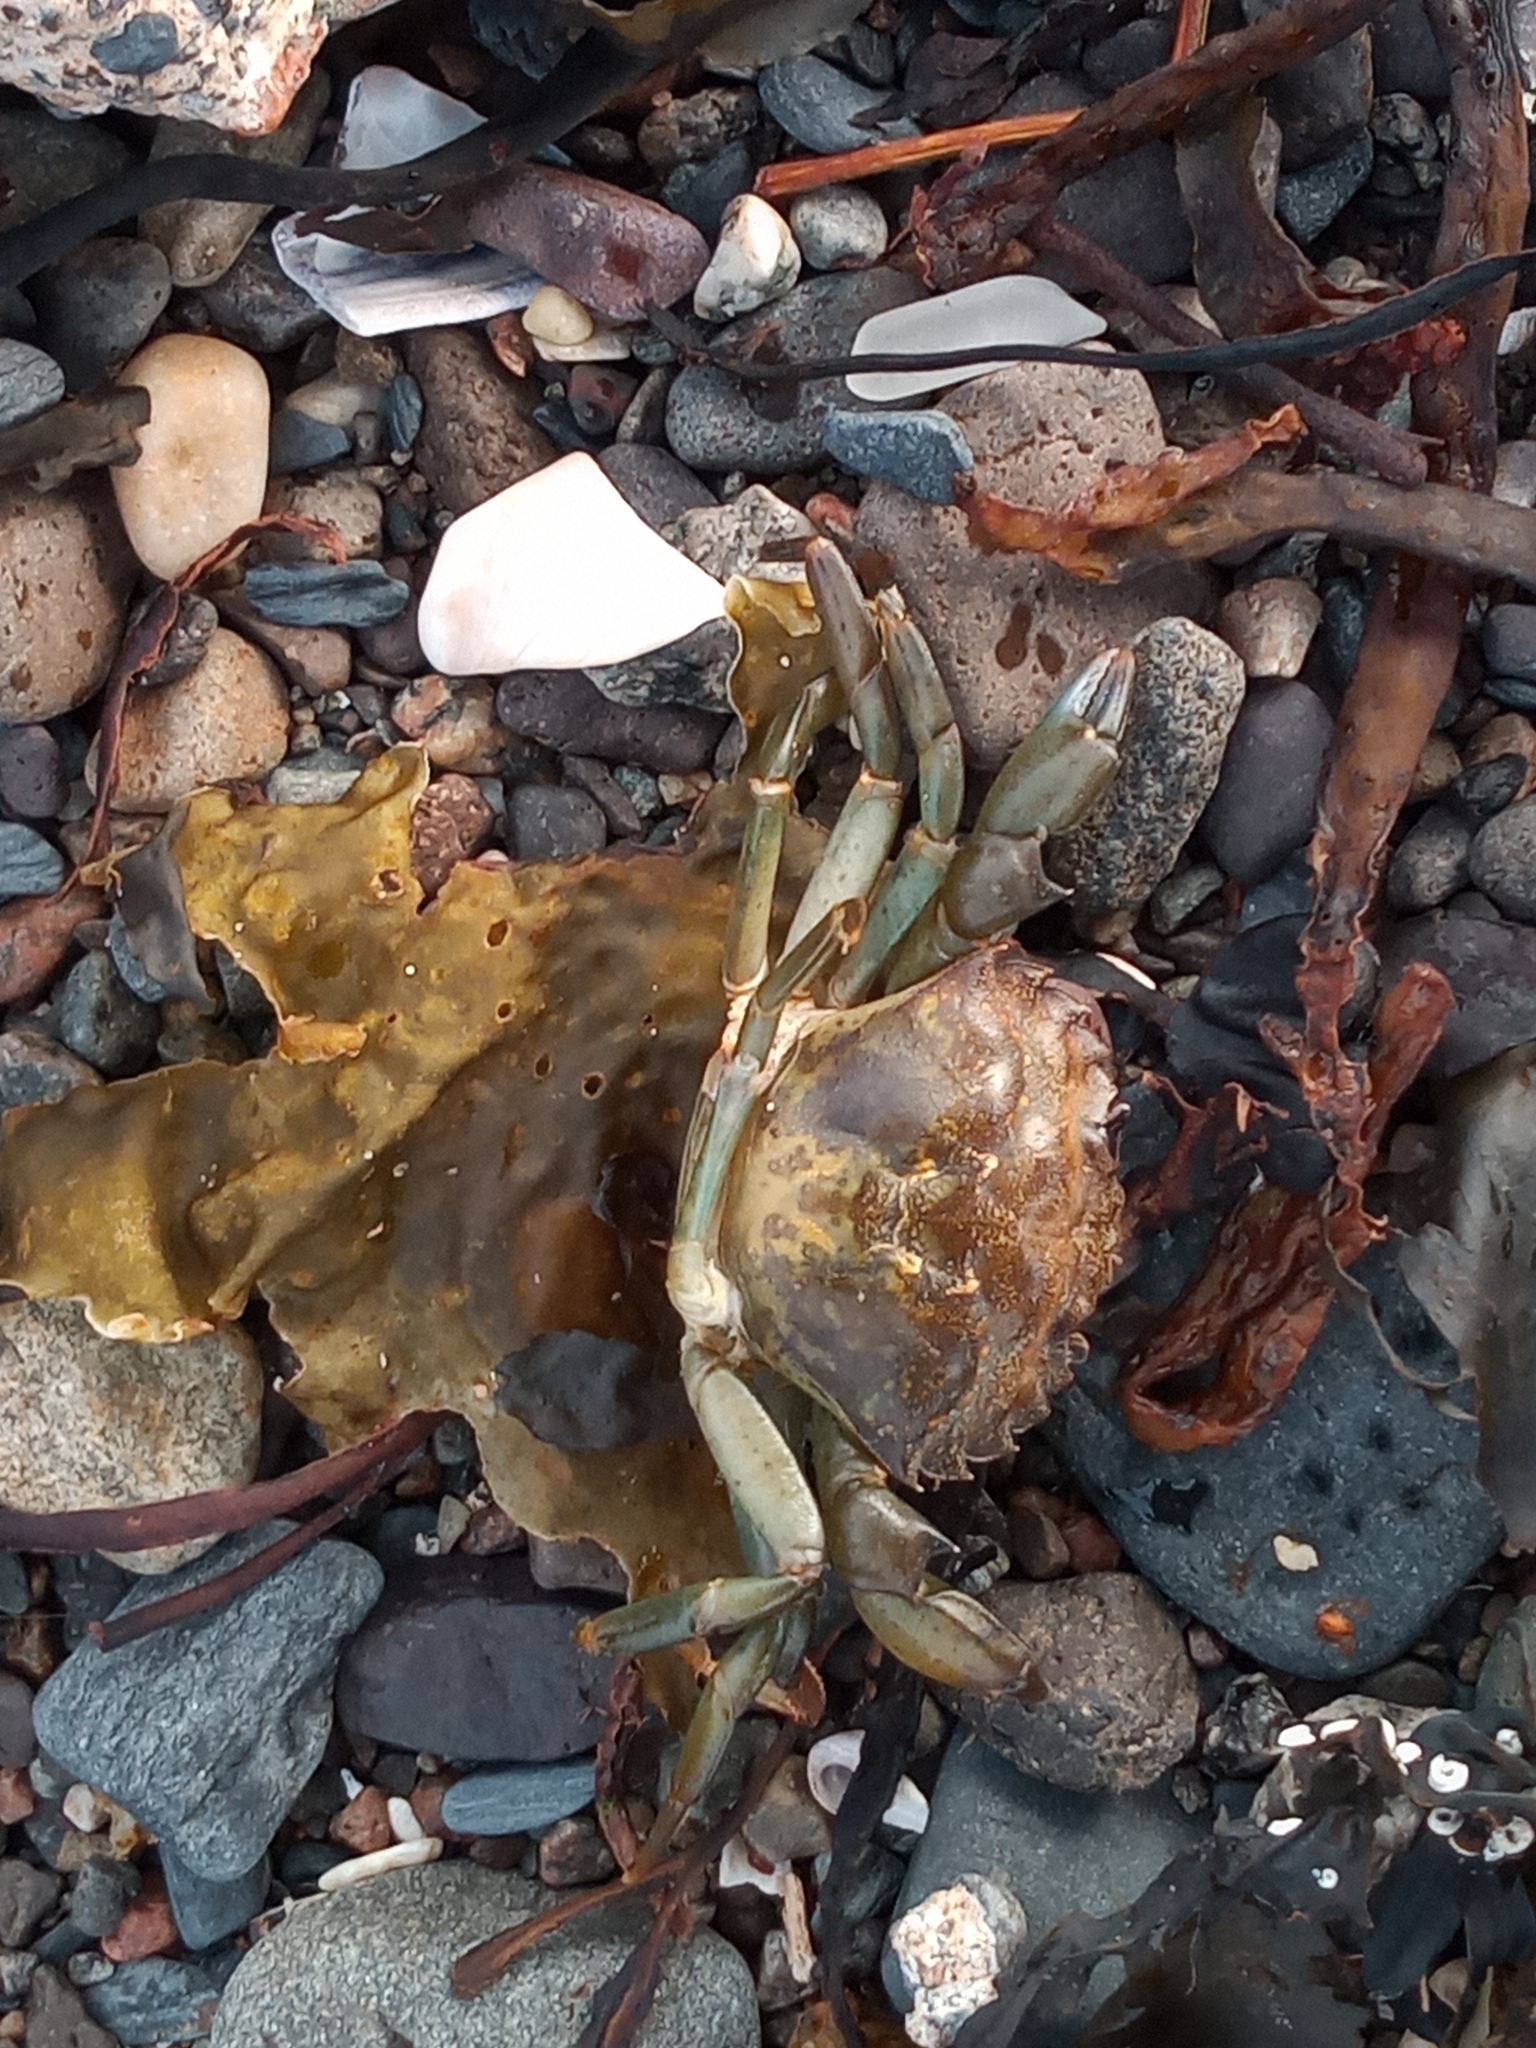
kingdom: Animalia
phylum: Arthropoda
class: Malacostraca
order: Decapoda
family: Carcinidae
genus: Carcinus
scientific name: Carcinus maenas
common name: European green crab
